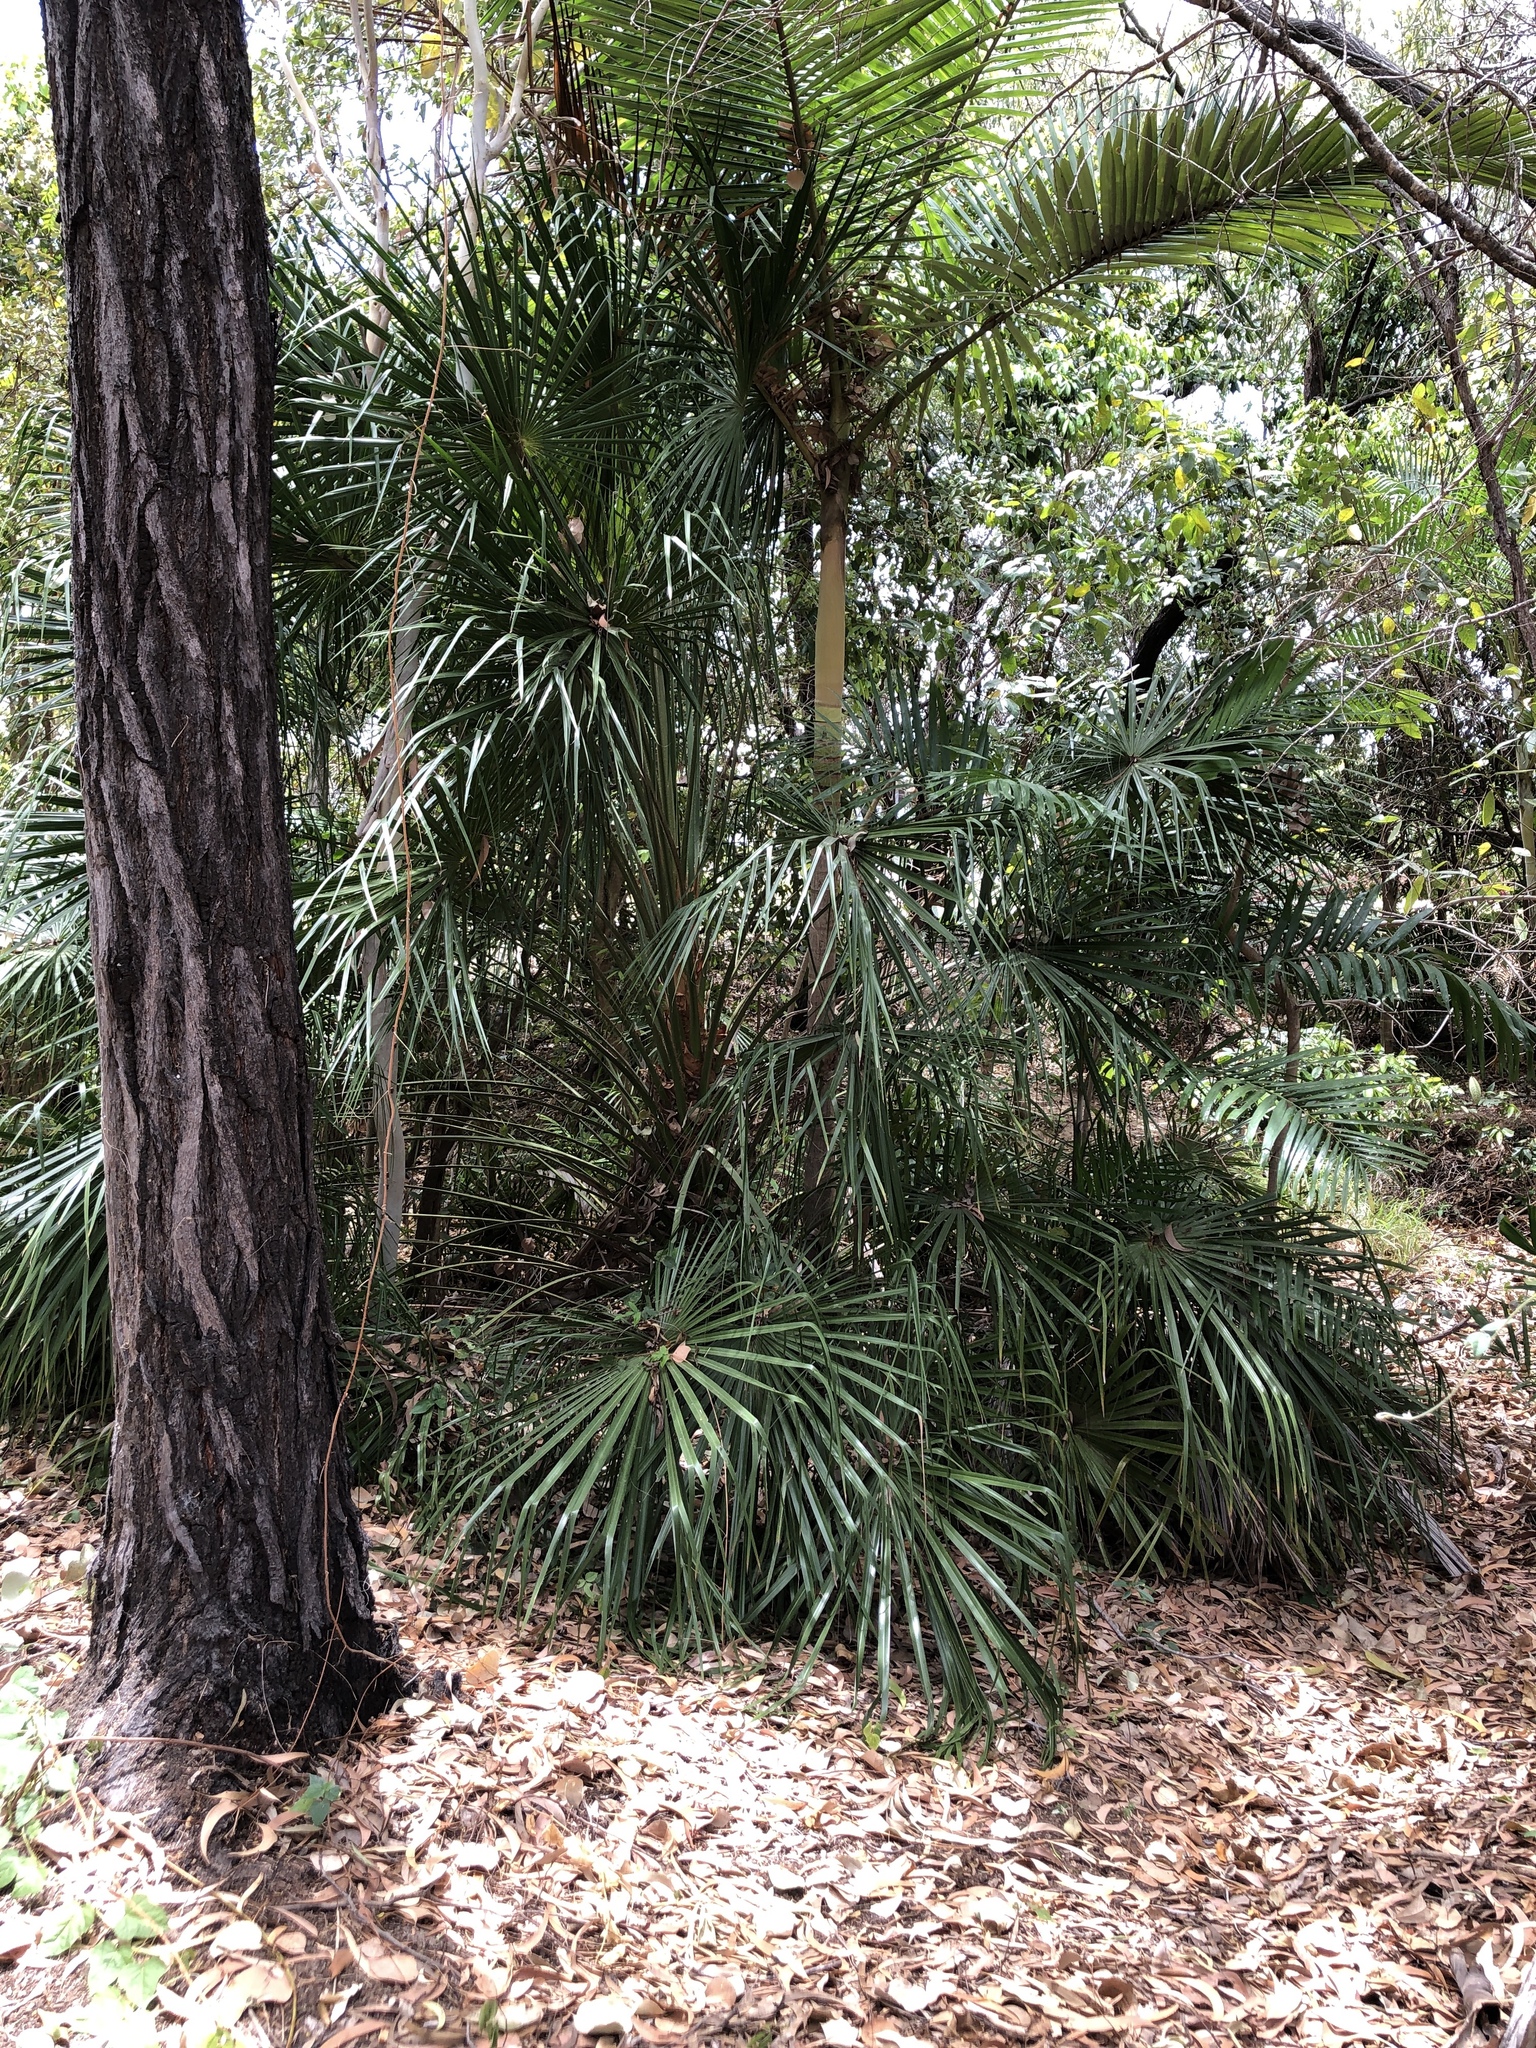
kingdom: Plantae
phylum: Tracheophyta
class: Liliopsida
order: Arecales
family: Arecaceae
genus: Livistona
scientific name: Livistona decora
